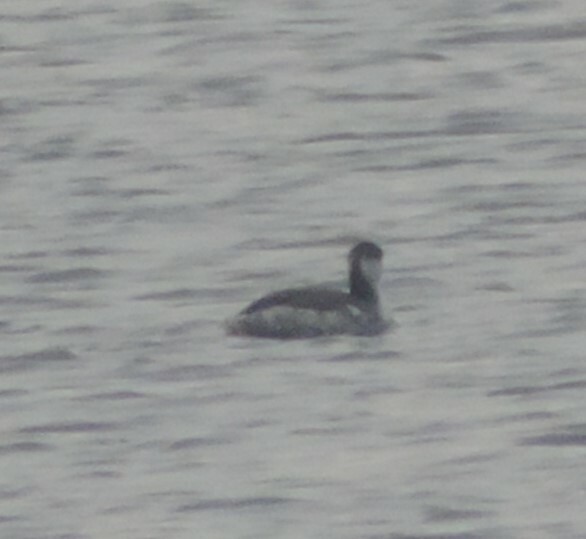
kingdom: Animalia
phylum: Chordata
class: Aves
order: Podicipediformes
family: Podicipedidae
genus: Podiceps
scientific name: Podiceps auritus
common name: Horned grebe
